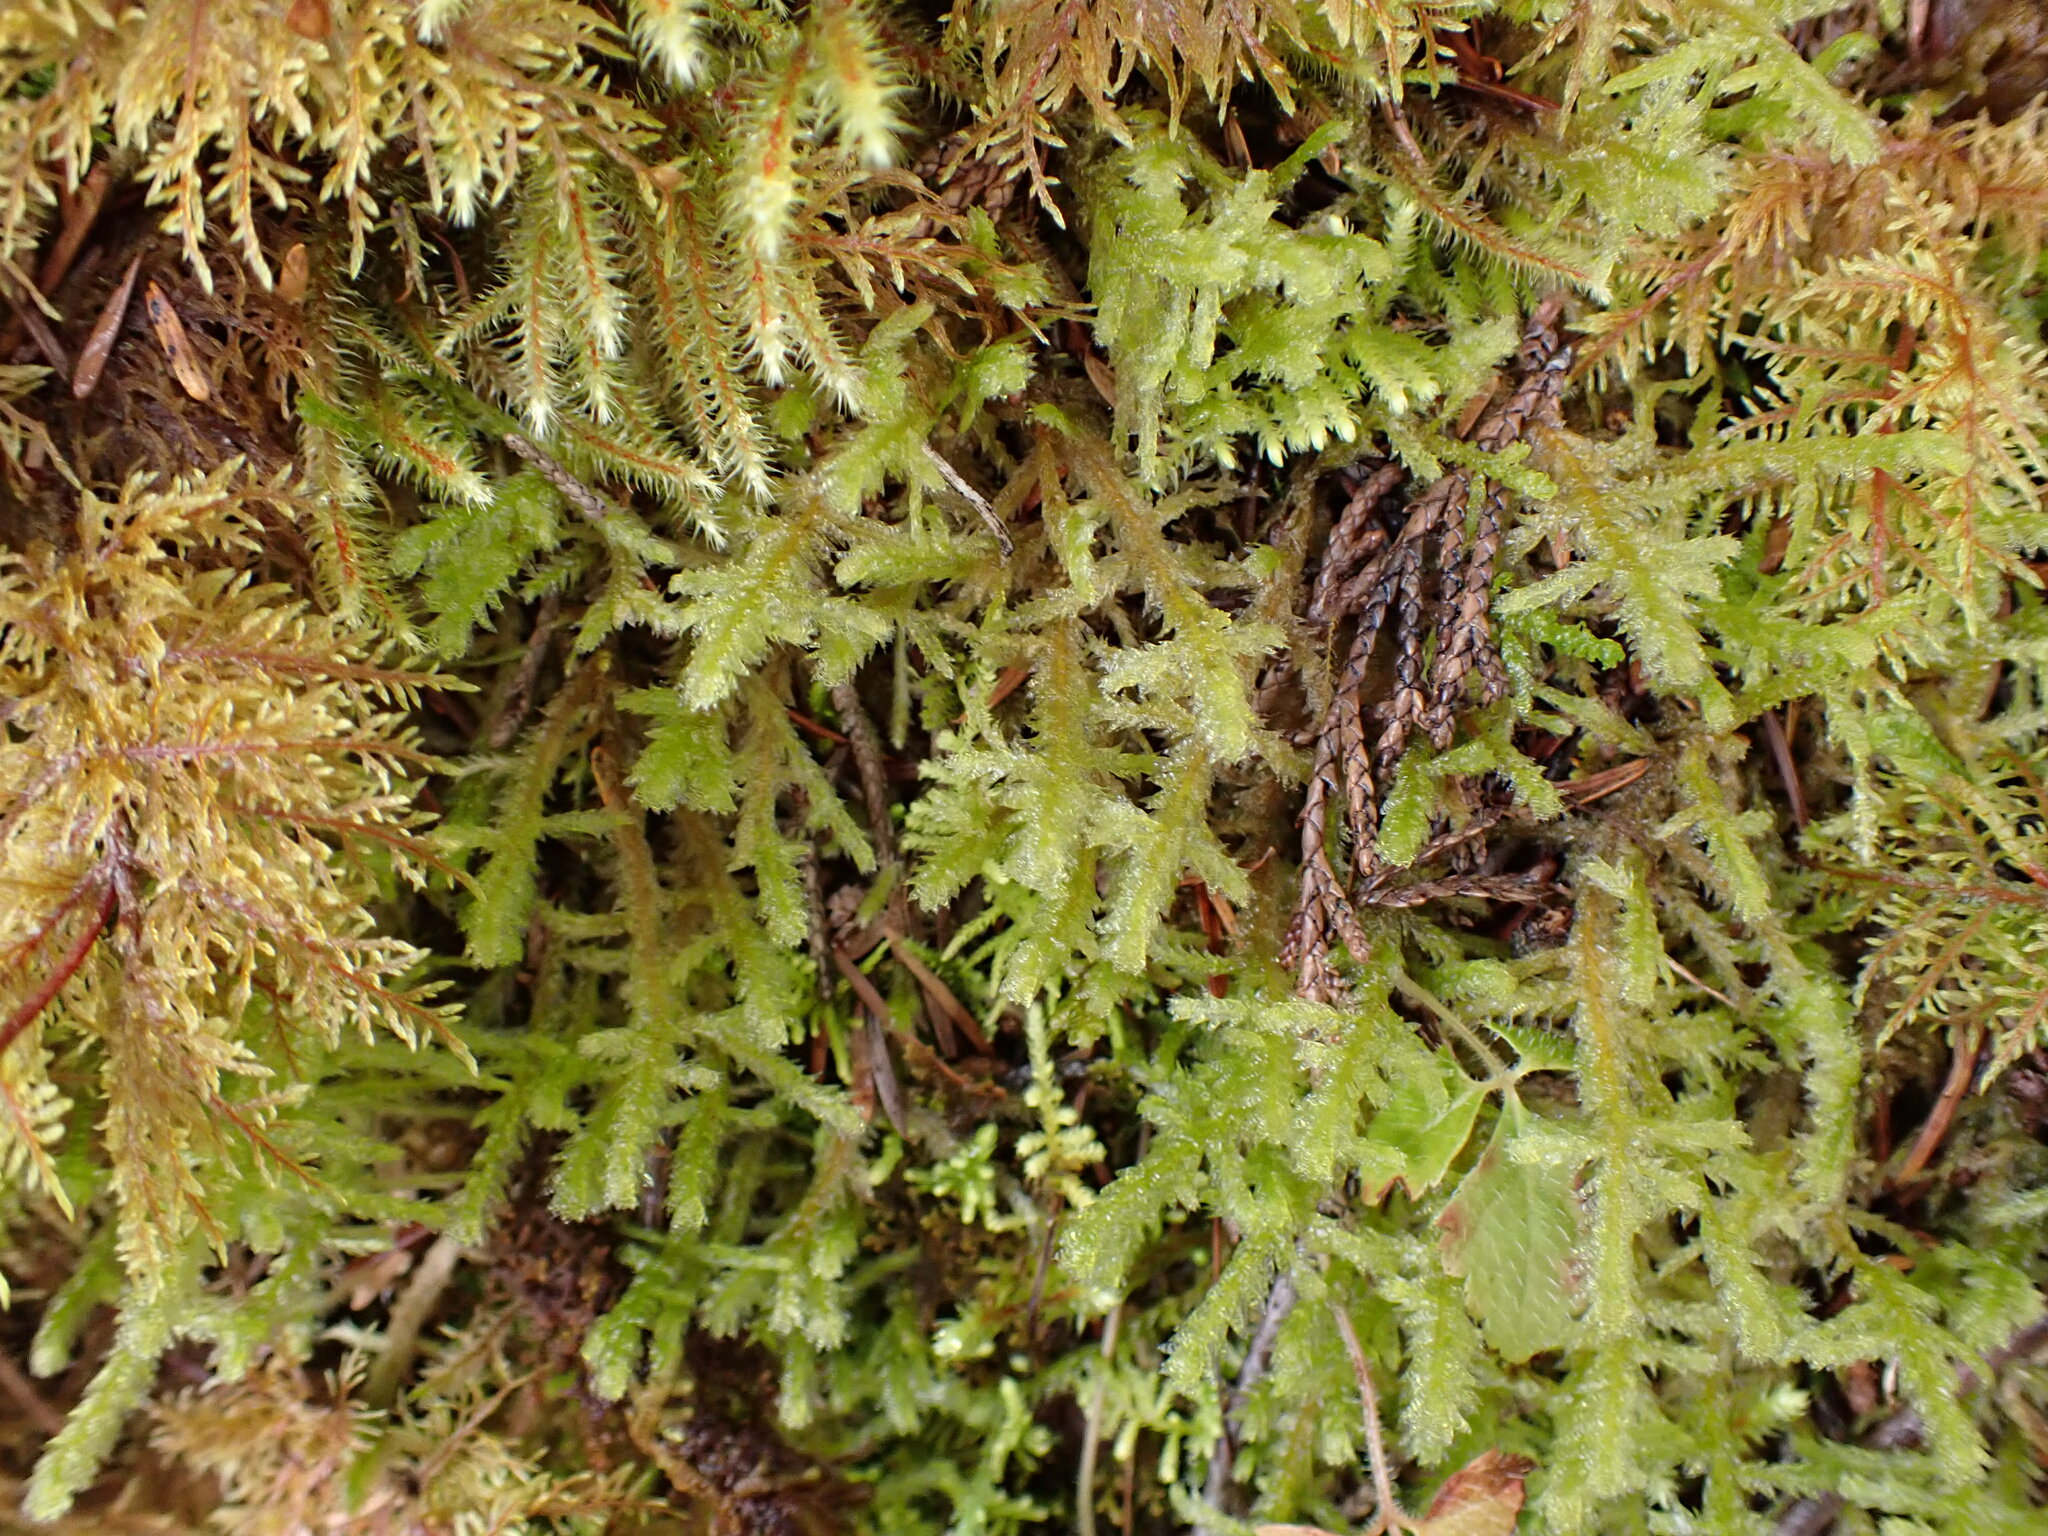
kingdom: Plantae
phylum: Bryophyta
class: Bryopsida
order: Hypnales
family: Neckeraceae
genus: Neckera
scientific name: Neckera douglasii
